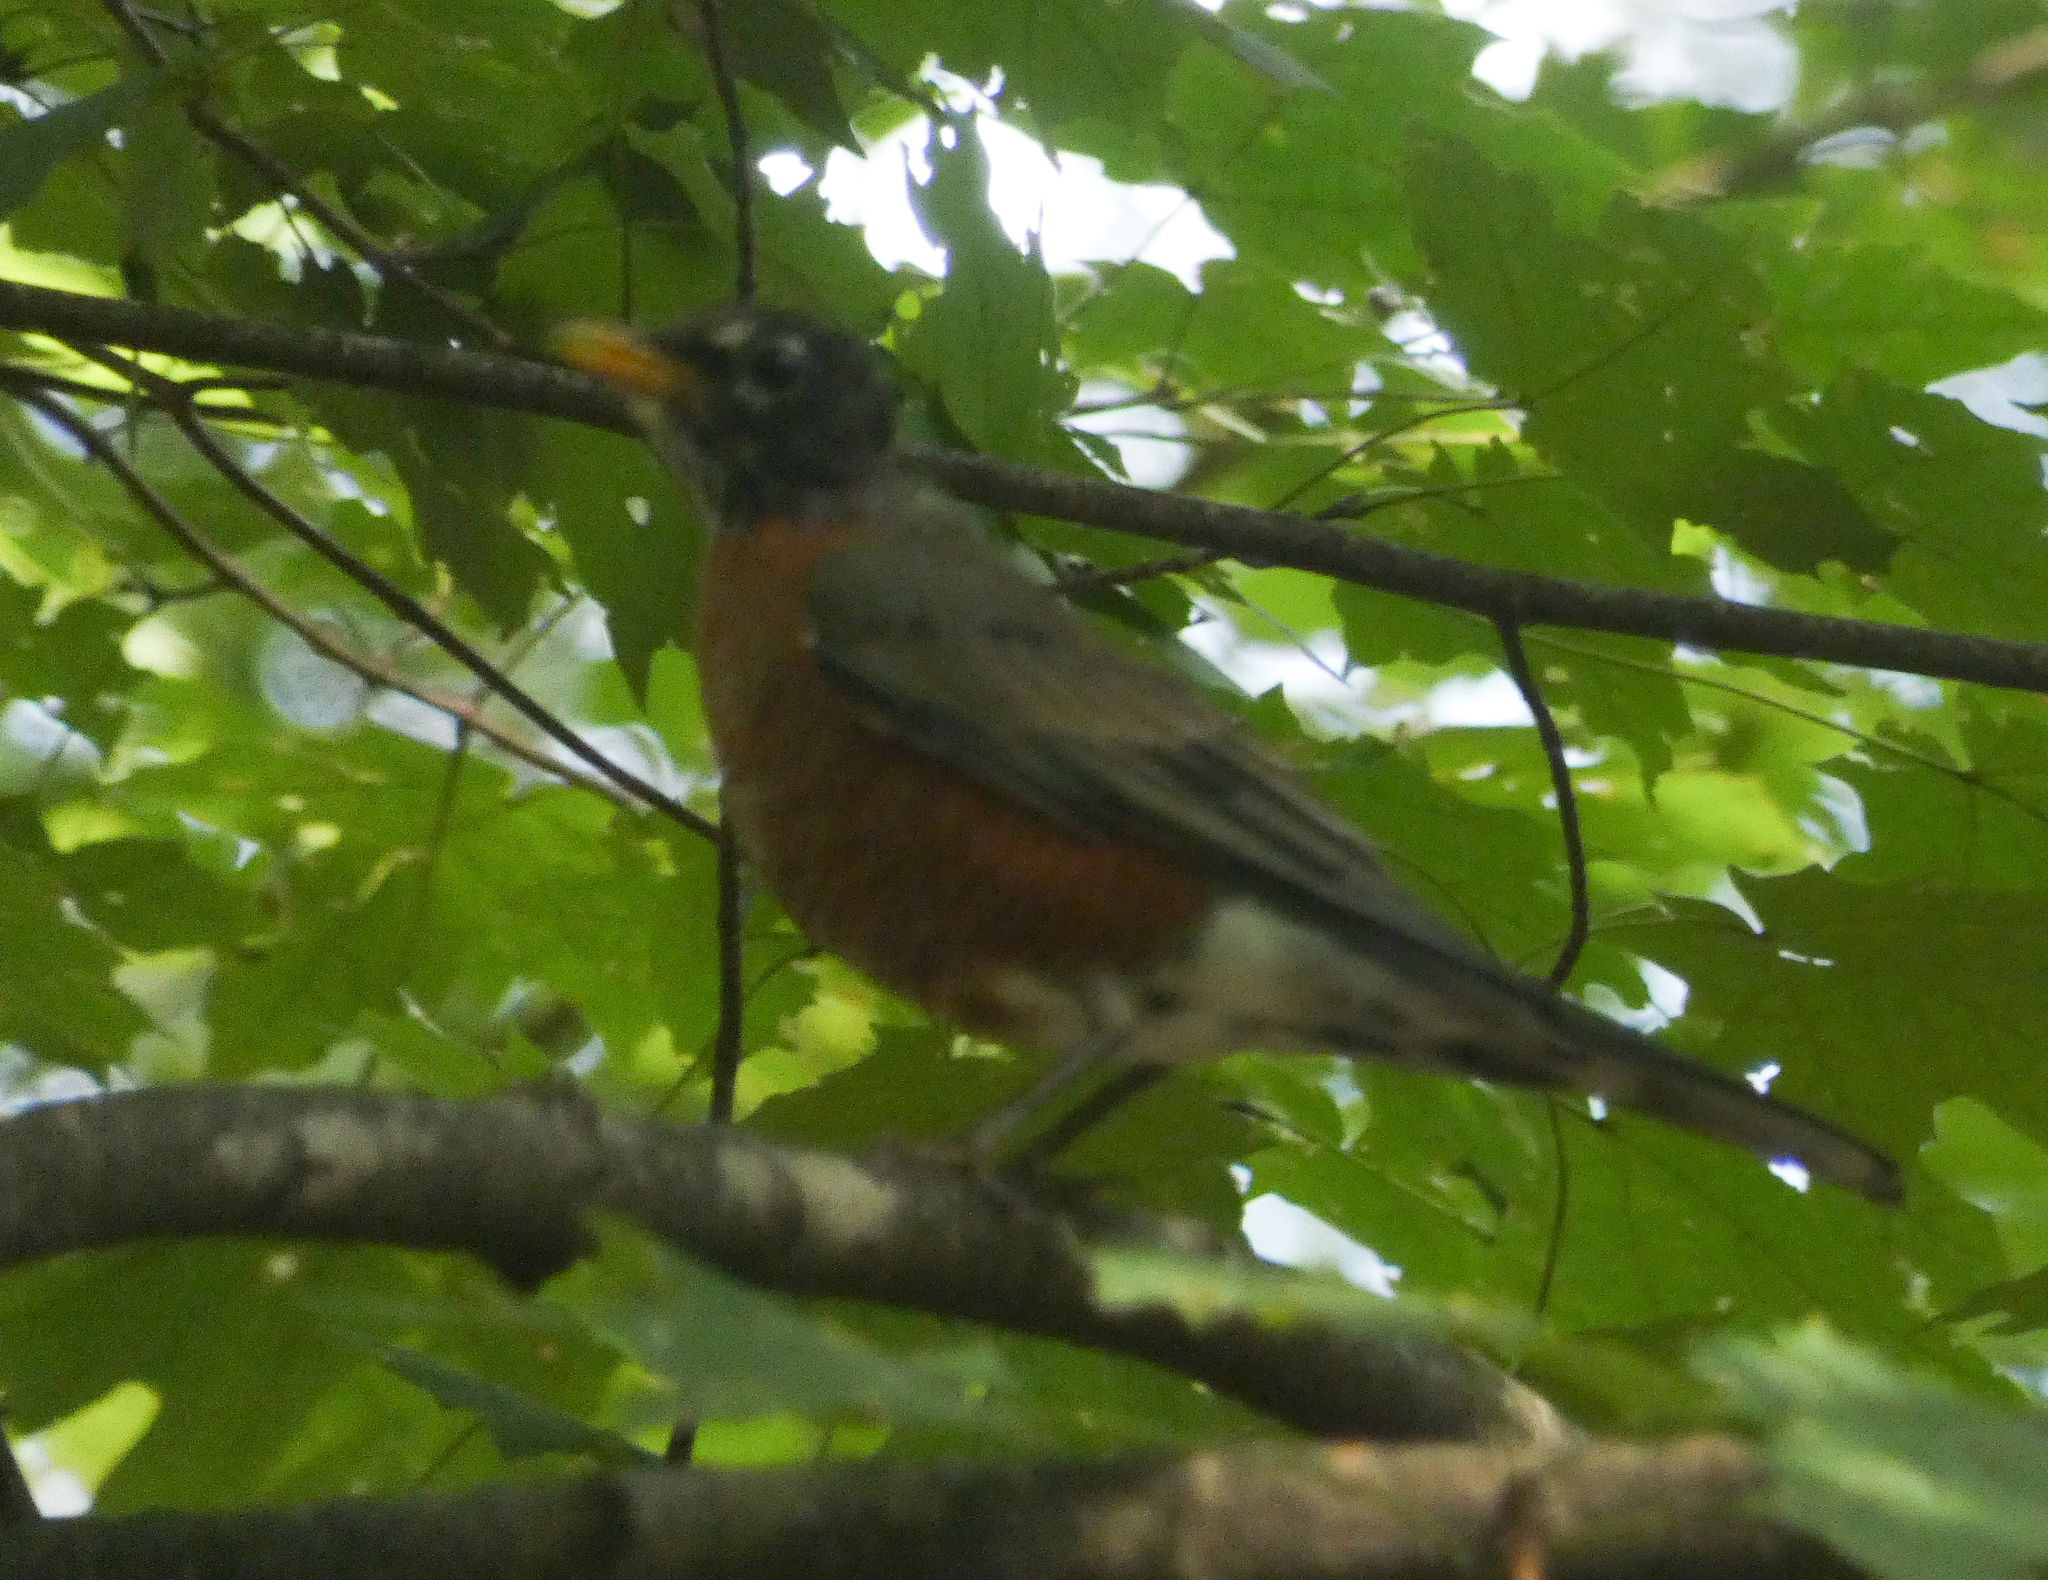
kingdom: Animalia
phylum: Chordata
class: Aves
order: Passeriformes
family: Turdidae
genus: Turdus
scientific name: Turdus migratorius
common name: American robin
